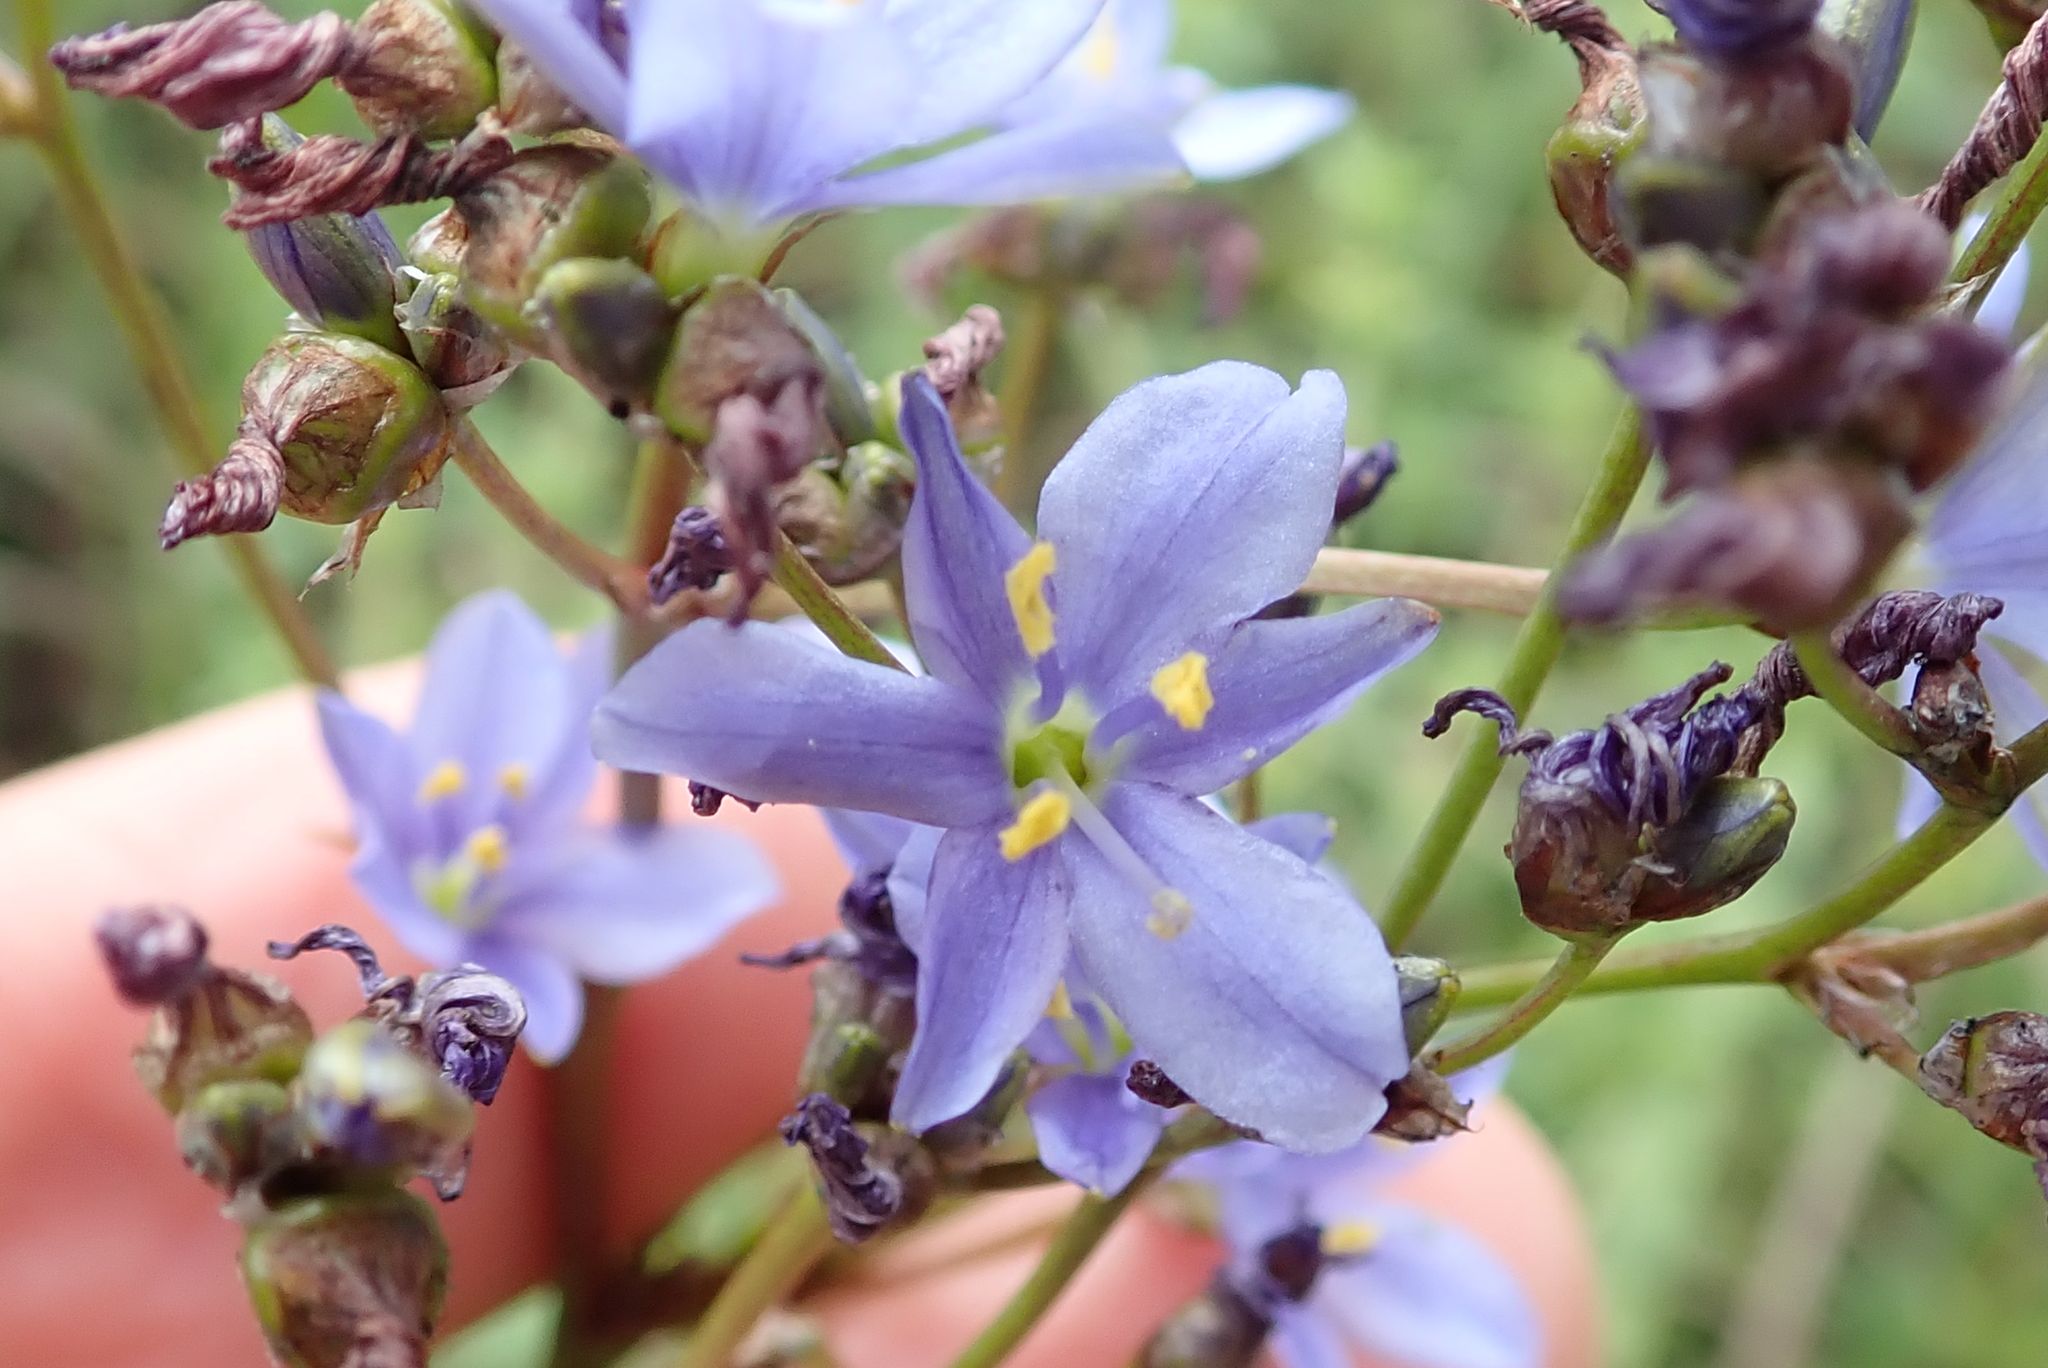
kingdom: Plantae
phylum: Tracheophyta
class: Liliopsida
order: Asparagales
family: Iridaceae
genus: Aristea
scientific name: Aristea angolensis
